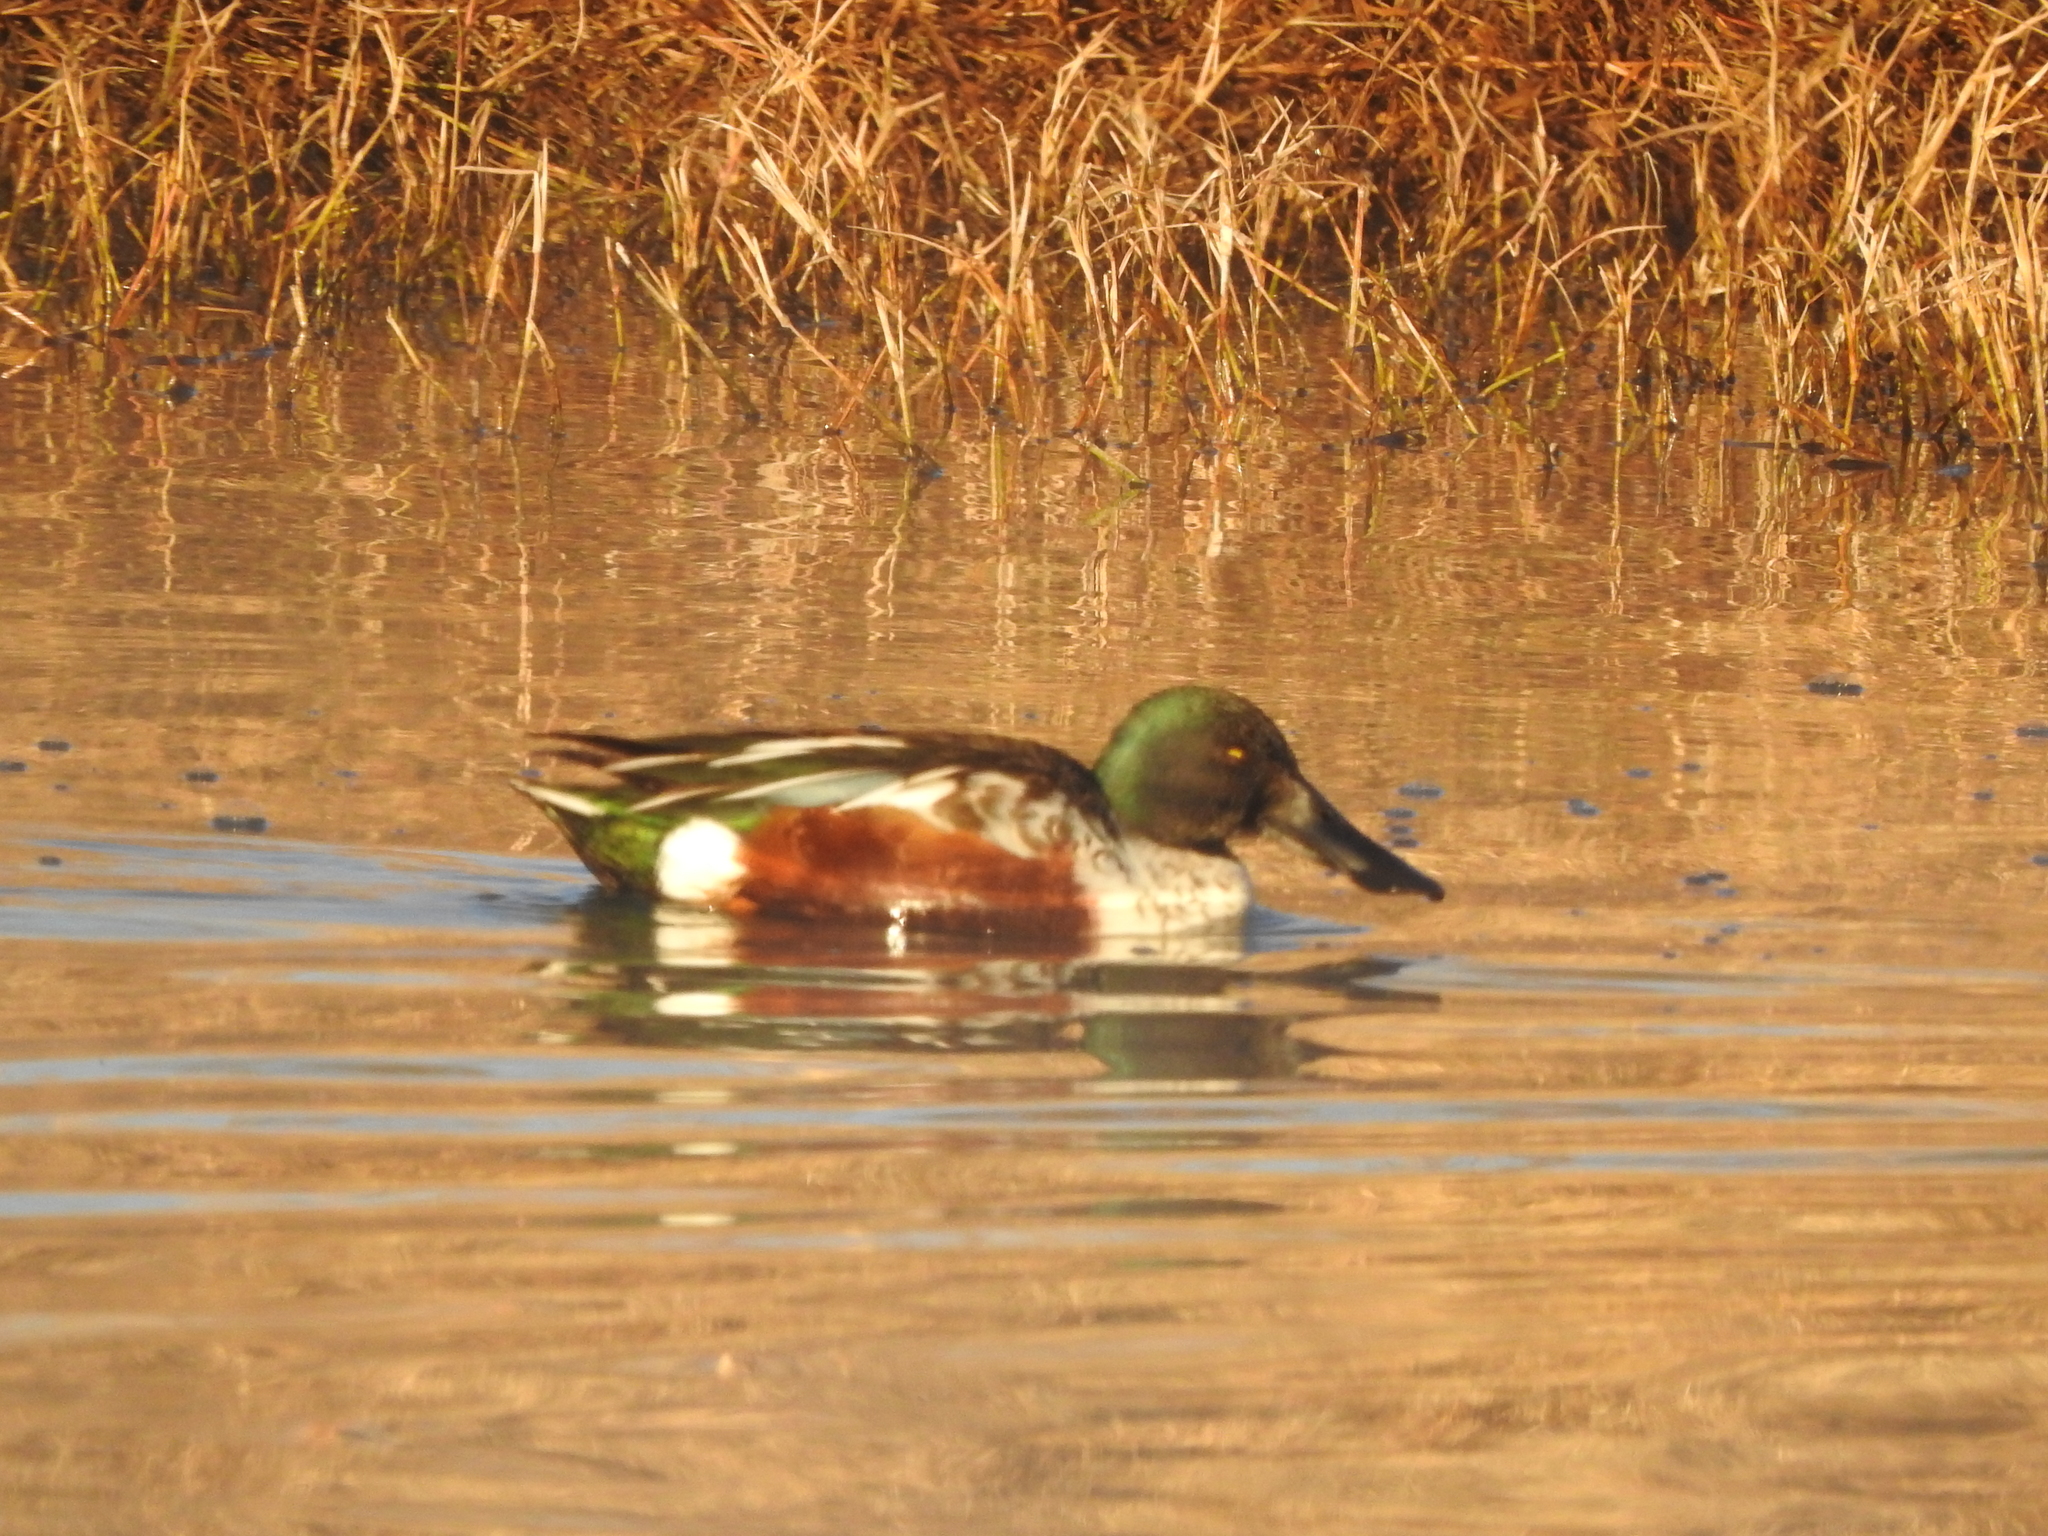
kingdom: Animalia
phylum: Chordata
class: Aves
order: Anseriformes
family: Anatidae
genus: Spatula
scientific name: Spatula clypeata
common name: Northern shoveler
